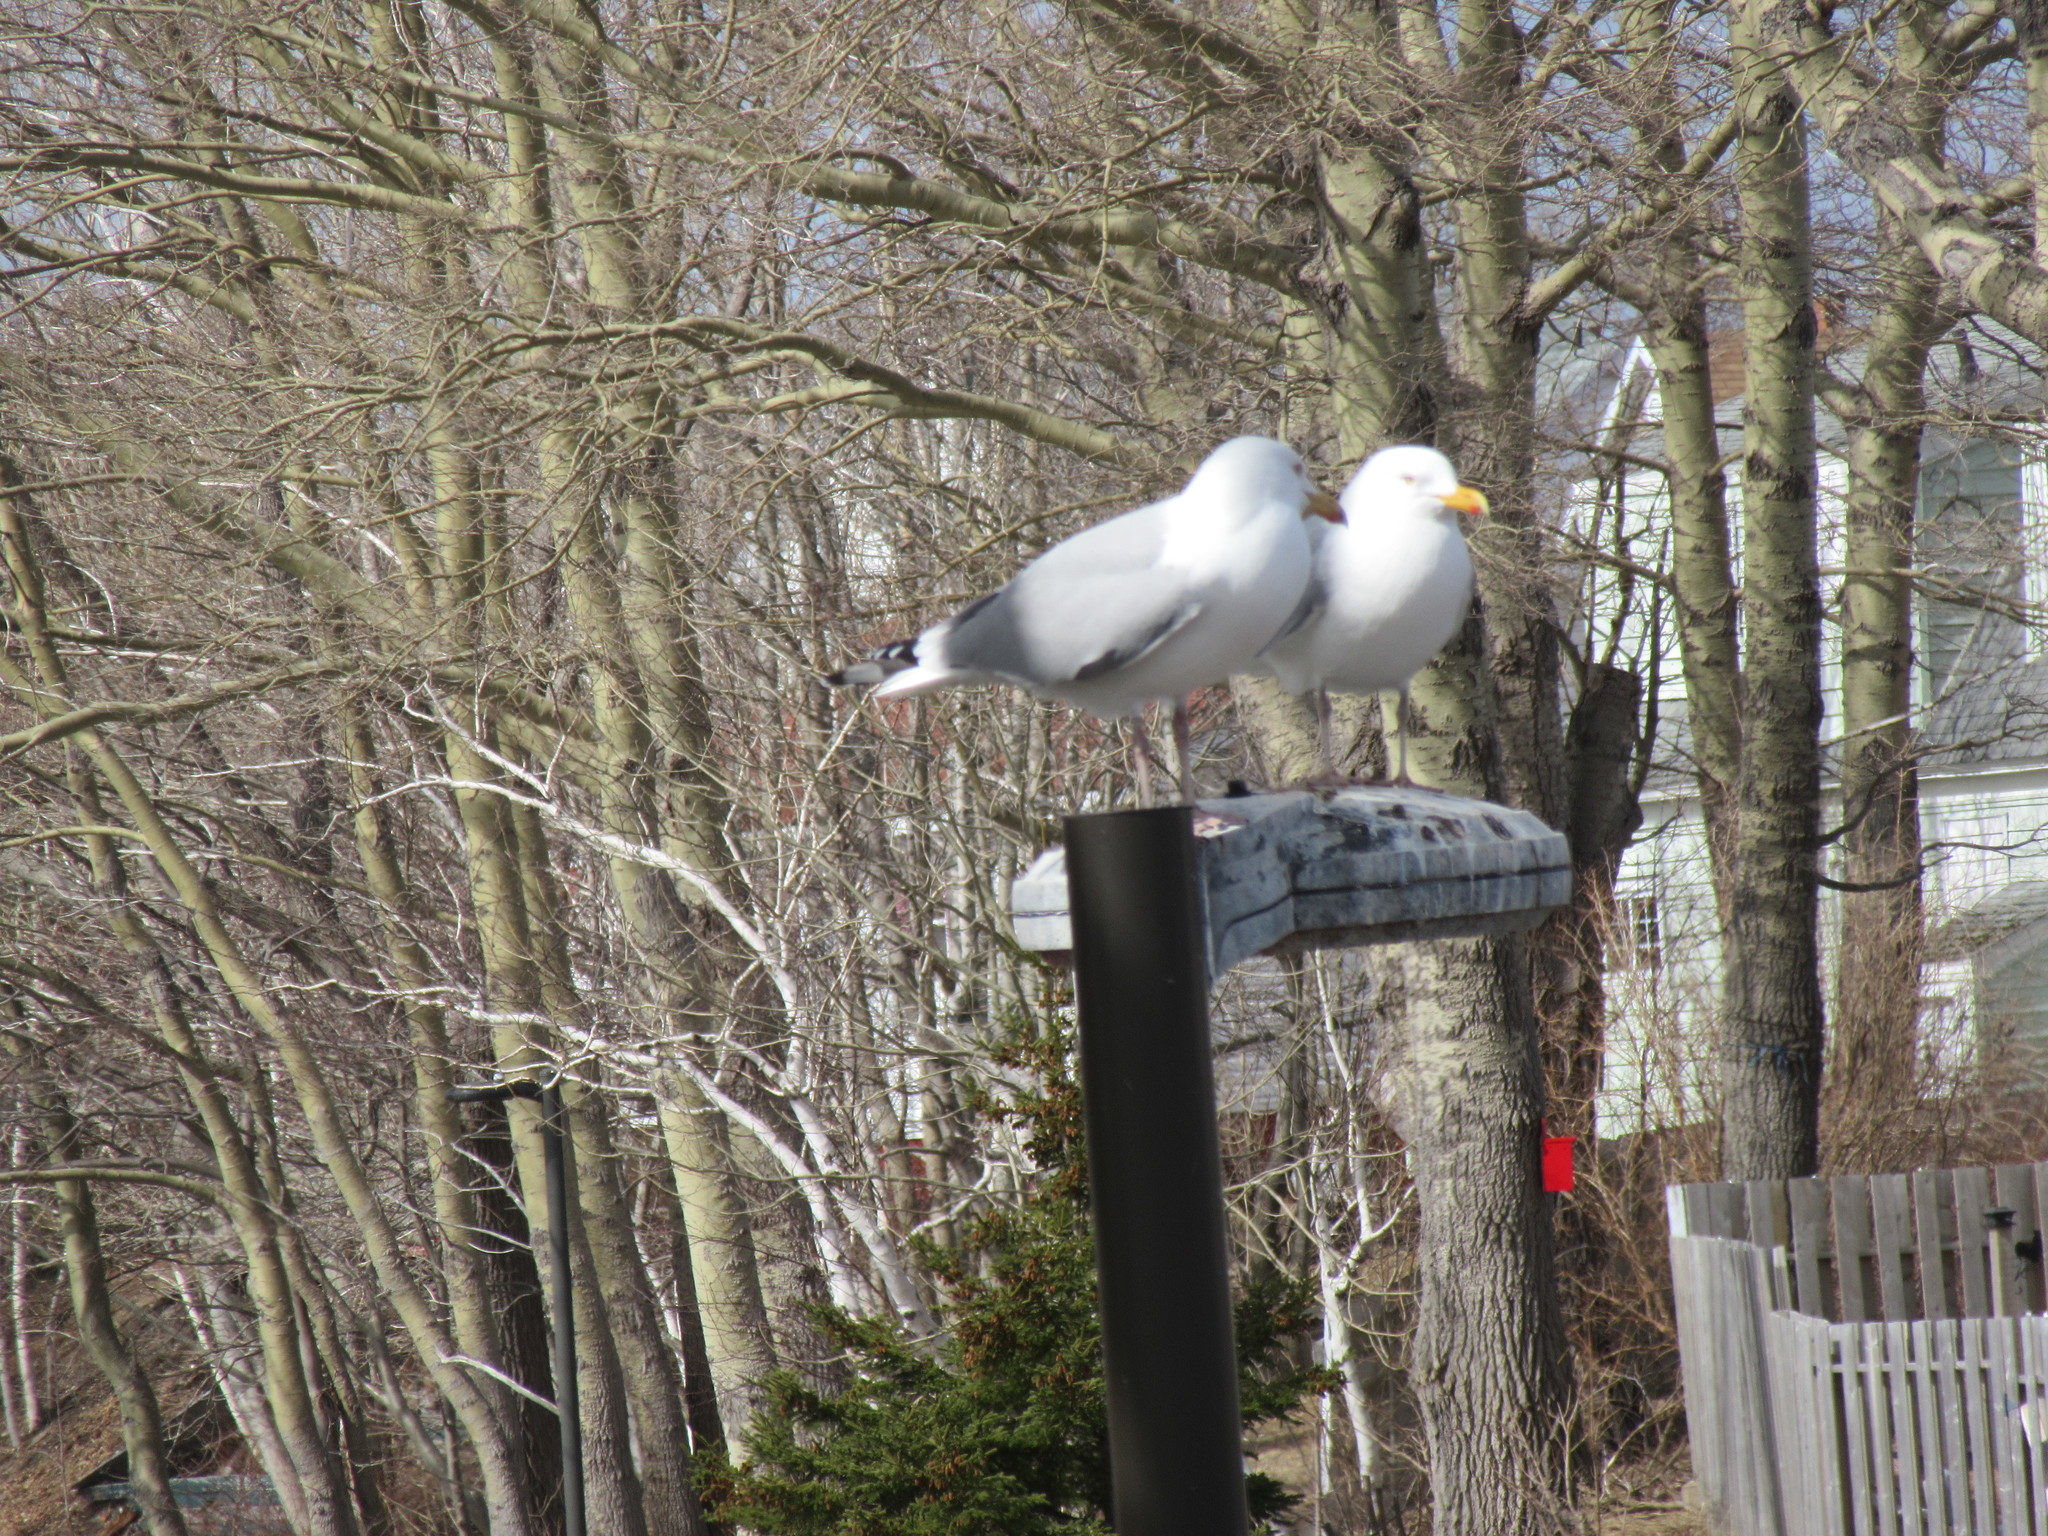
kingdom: Animalia
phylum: Chordata
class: Aves
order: Charadriiformes
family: Laridae
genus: Larus
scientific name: Larus argentatus
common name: Herring gull
